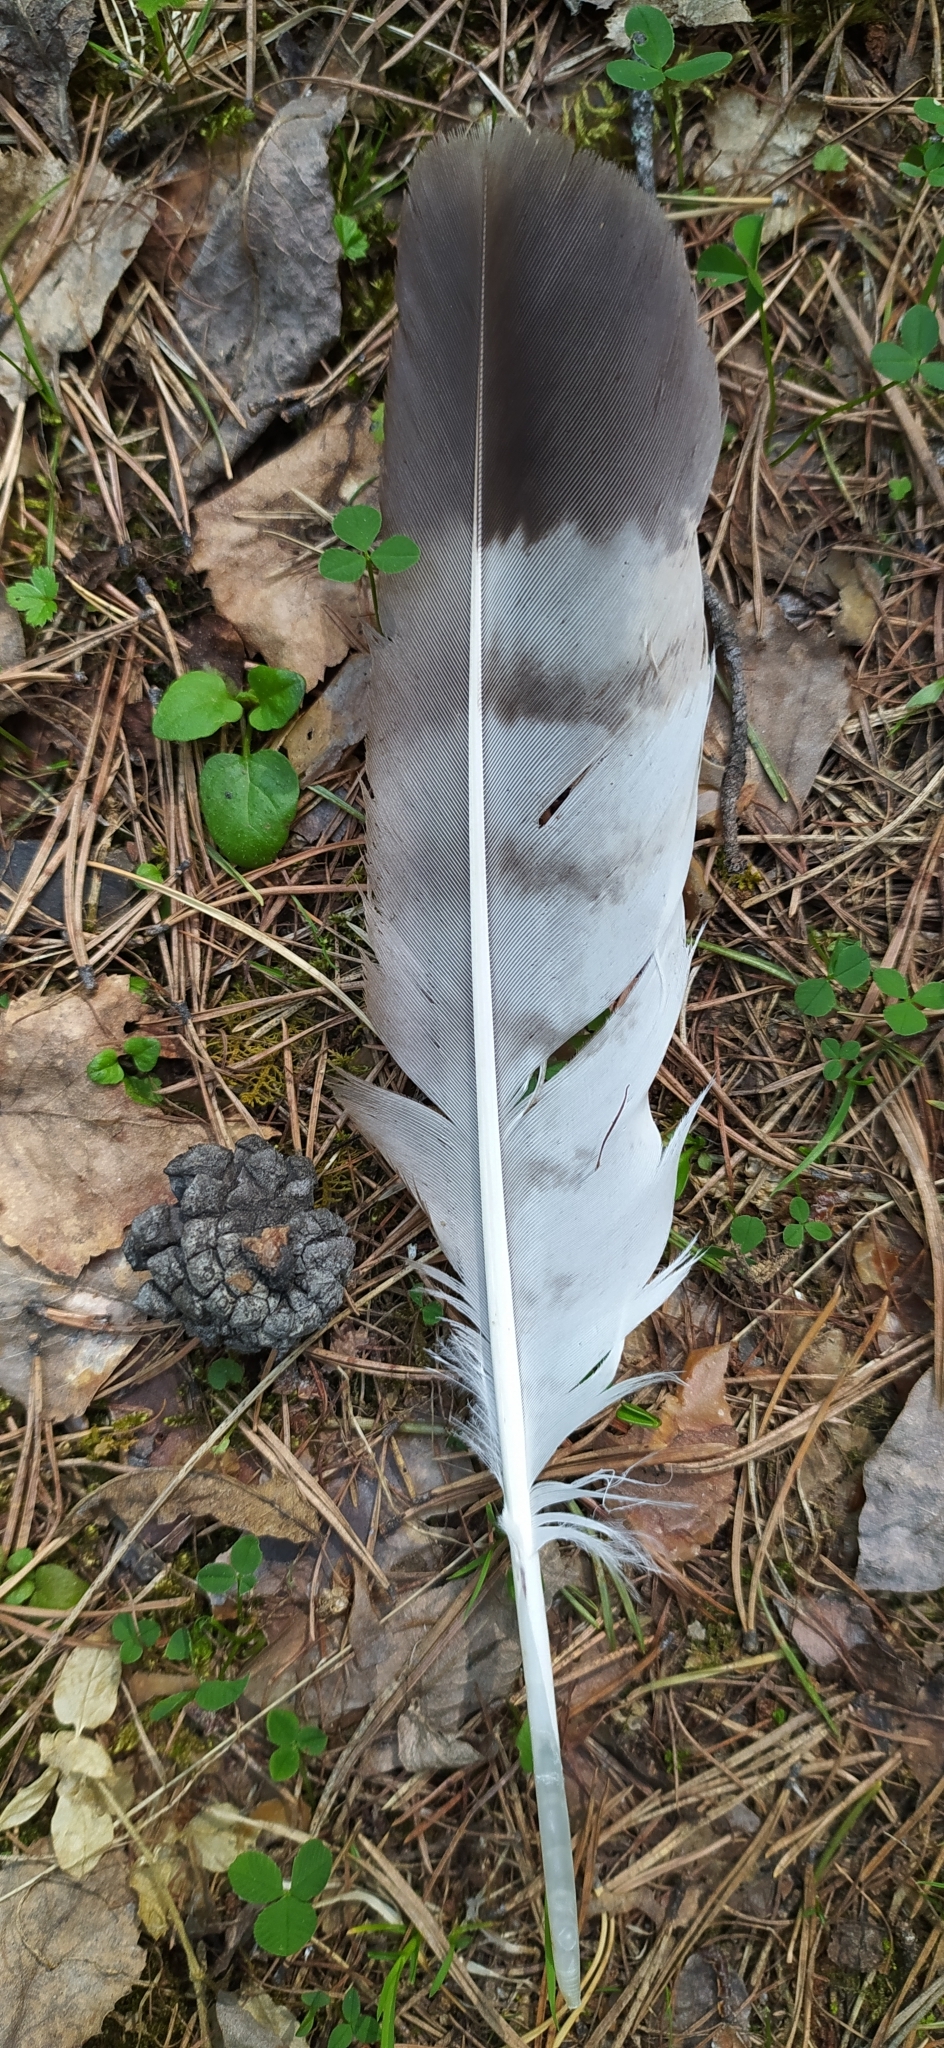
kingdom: Animalia
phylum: Chordata
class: Aves
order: Accipitriformes
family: Accipitridae
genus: Buteo
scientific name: Buteo buteo
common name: Common buzzard
